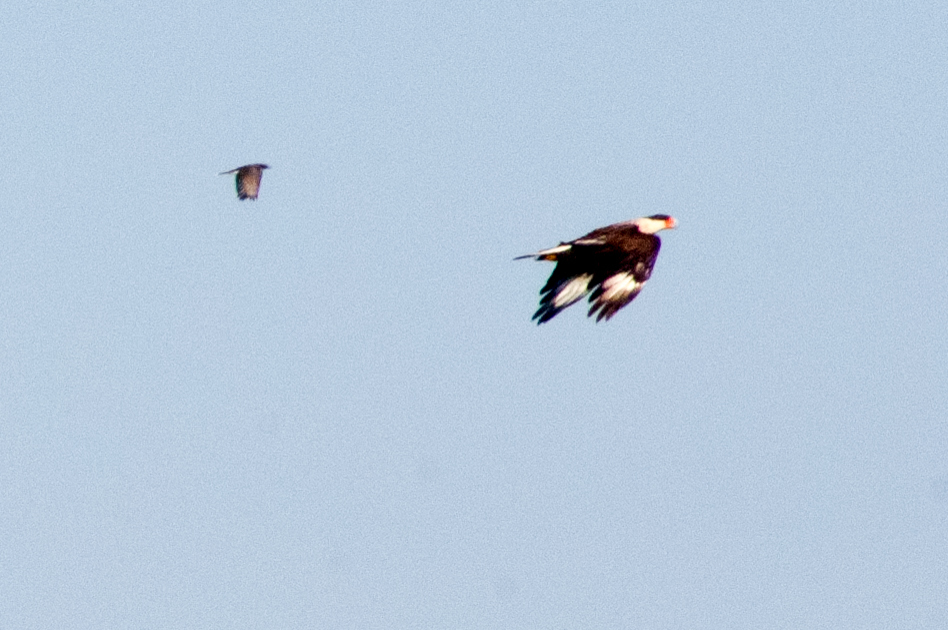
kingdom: Animalia
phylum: Chordata
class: Aves
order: Falconiformes
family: Falconidae
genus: Caracara
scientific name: Caracara plancus
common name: Southern caracara
